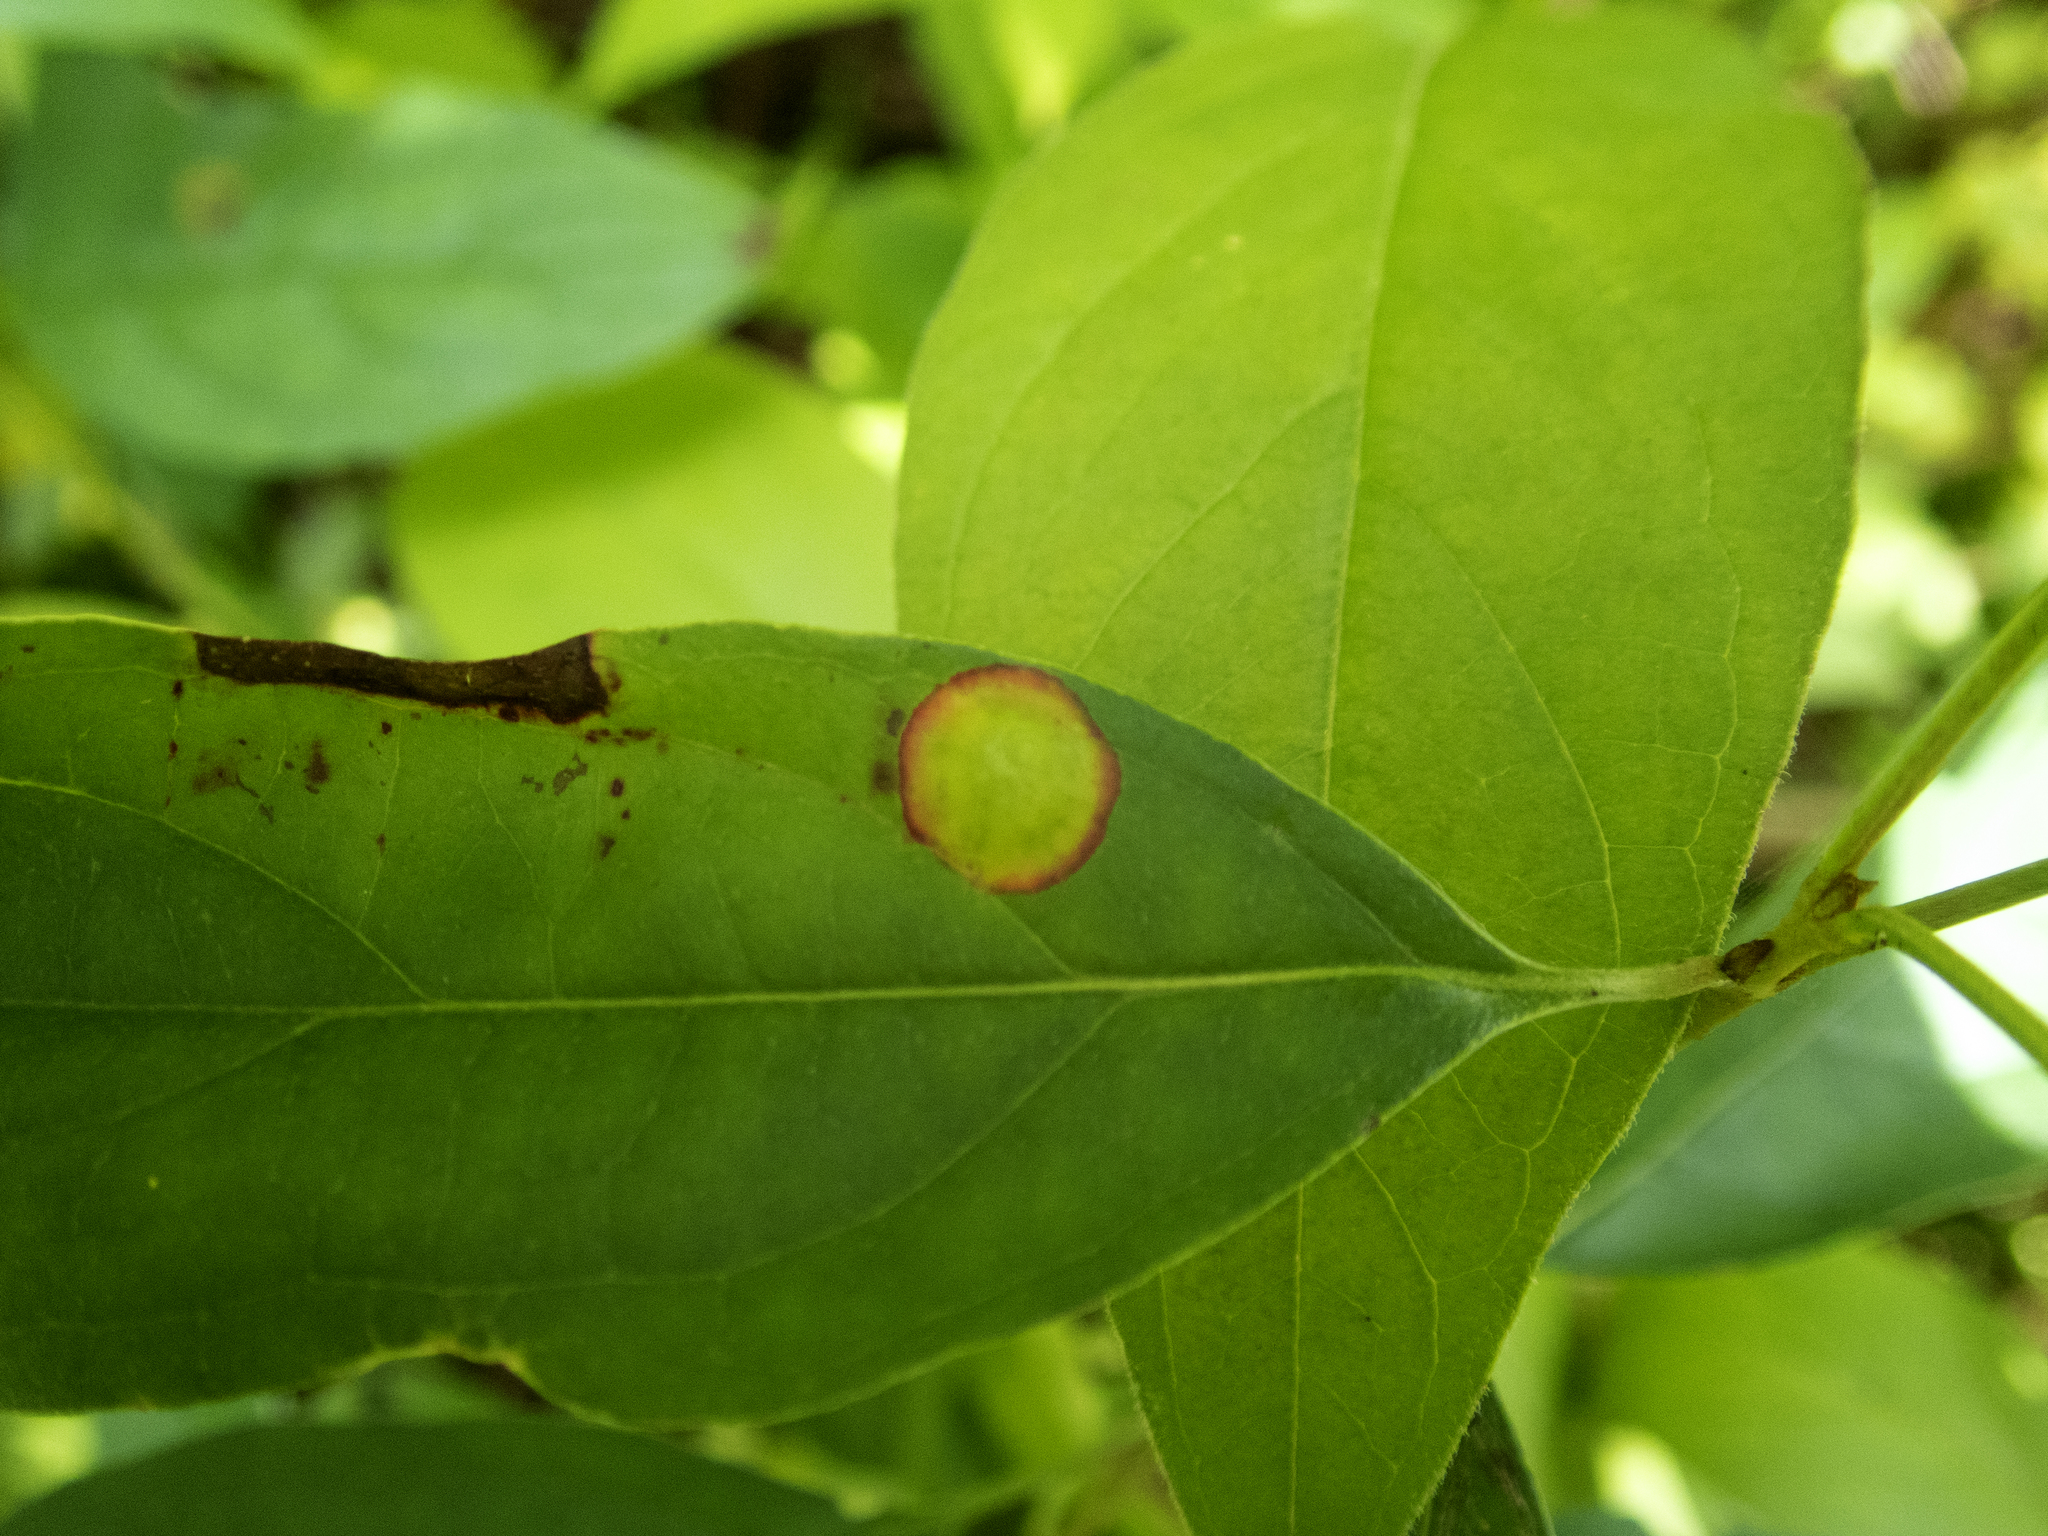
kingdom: Animalia
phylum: Arthropoda
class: Insecta
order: Diptera
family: Cecidomyiidae
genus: Parallelodiplosis
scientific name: Parallelodiplosis subtruncata
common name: Dogwood eyespot gall midge
